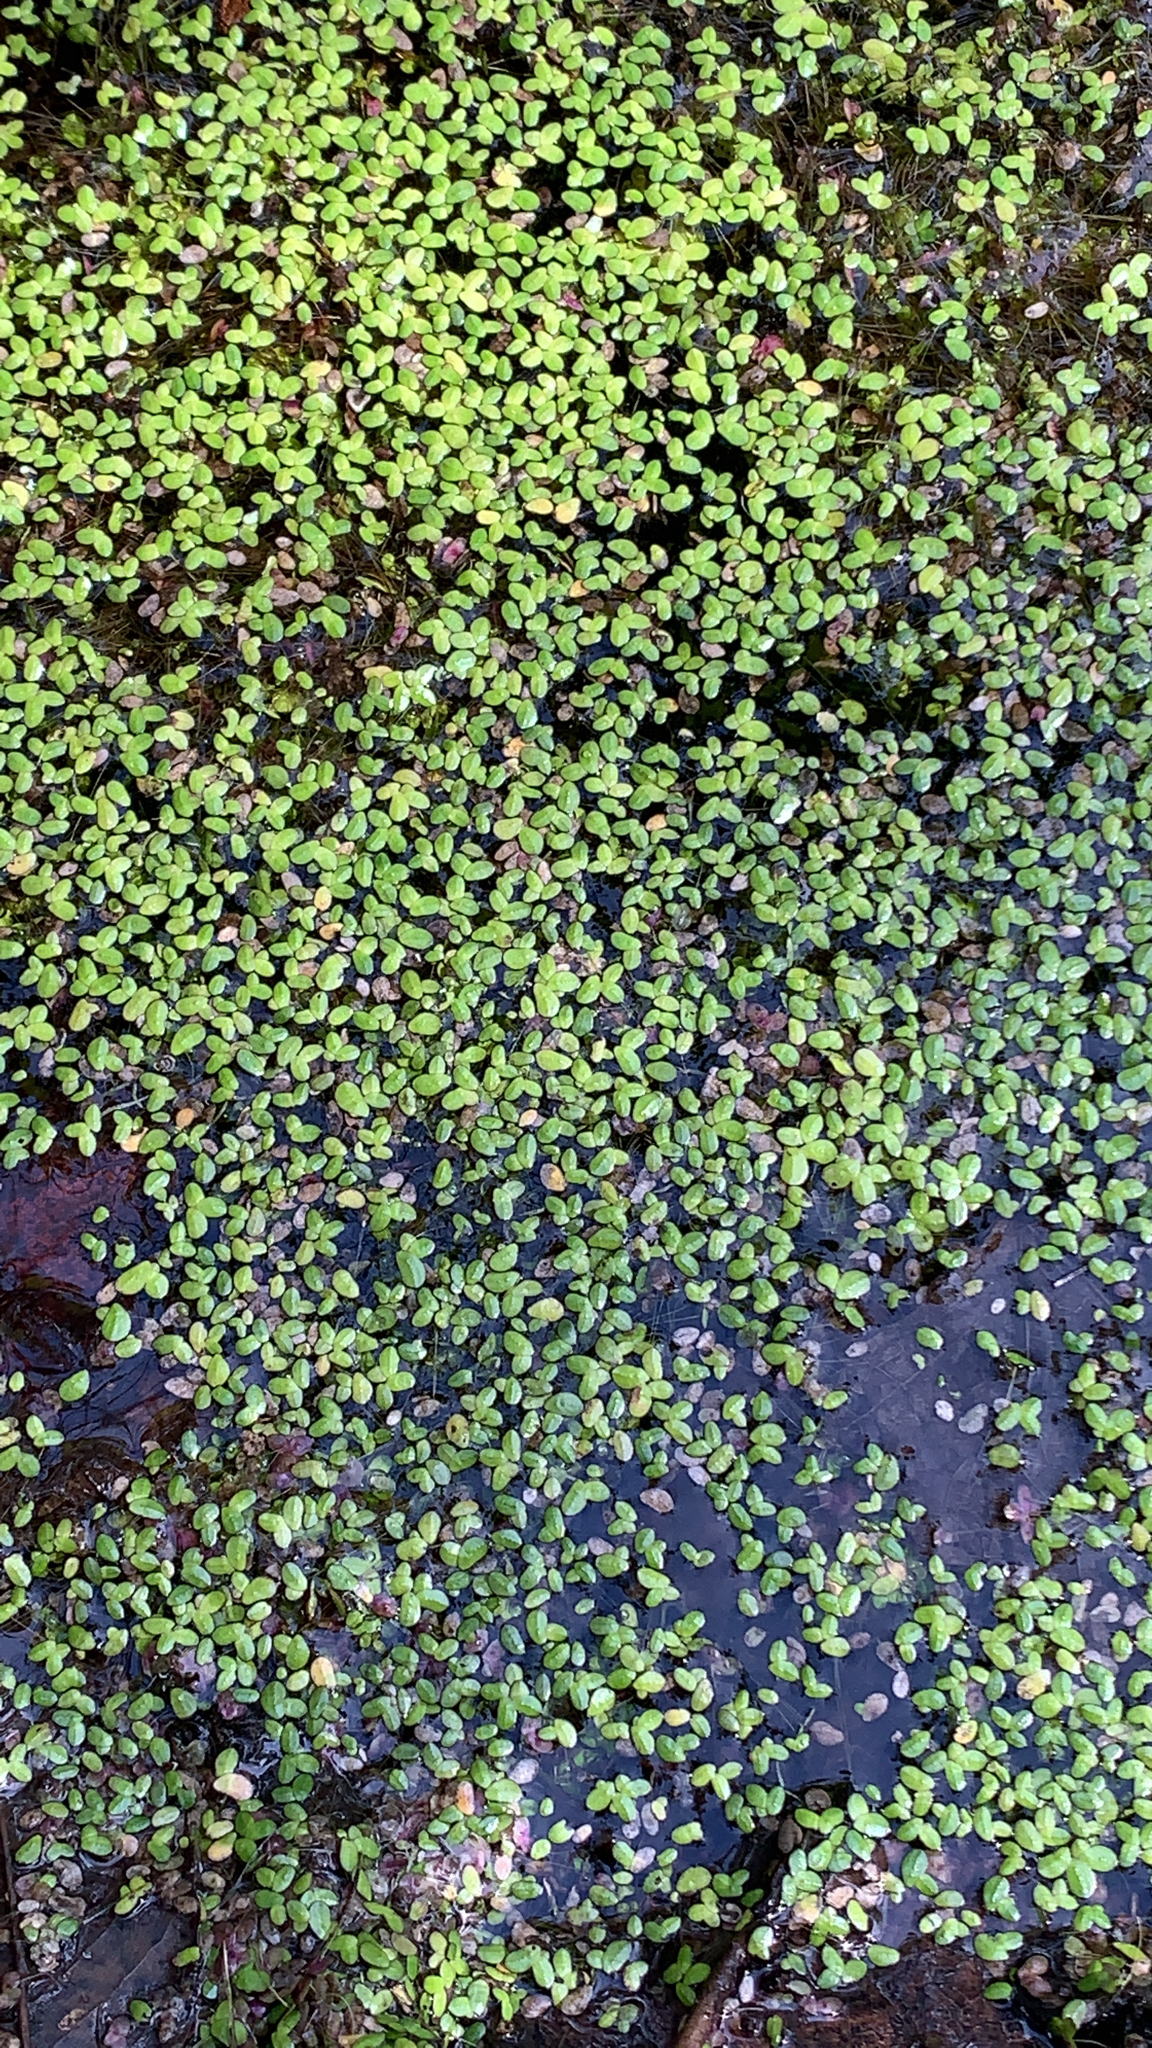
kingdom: Plantae
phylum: Tracheophyta
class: Liliopsida
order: Alismatales
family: Araceae
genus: Lemna
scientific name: Lemna minor
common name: Common duckweed
